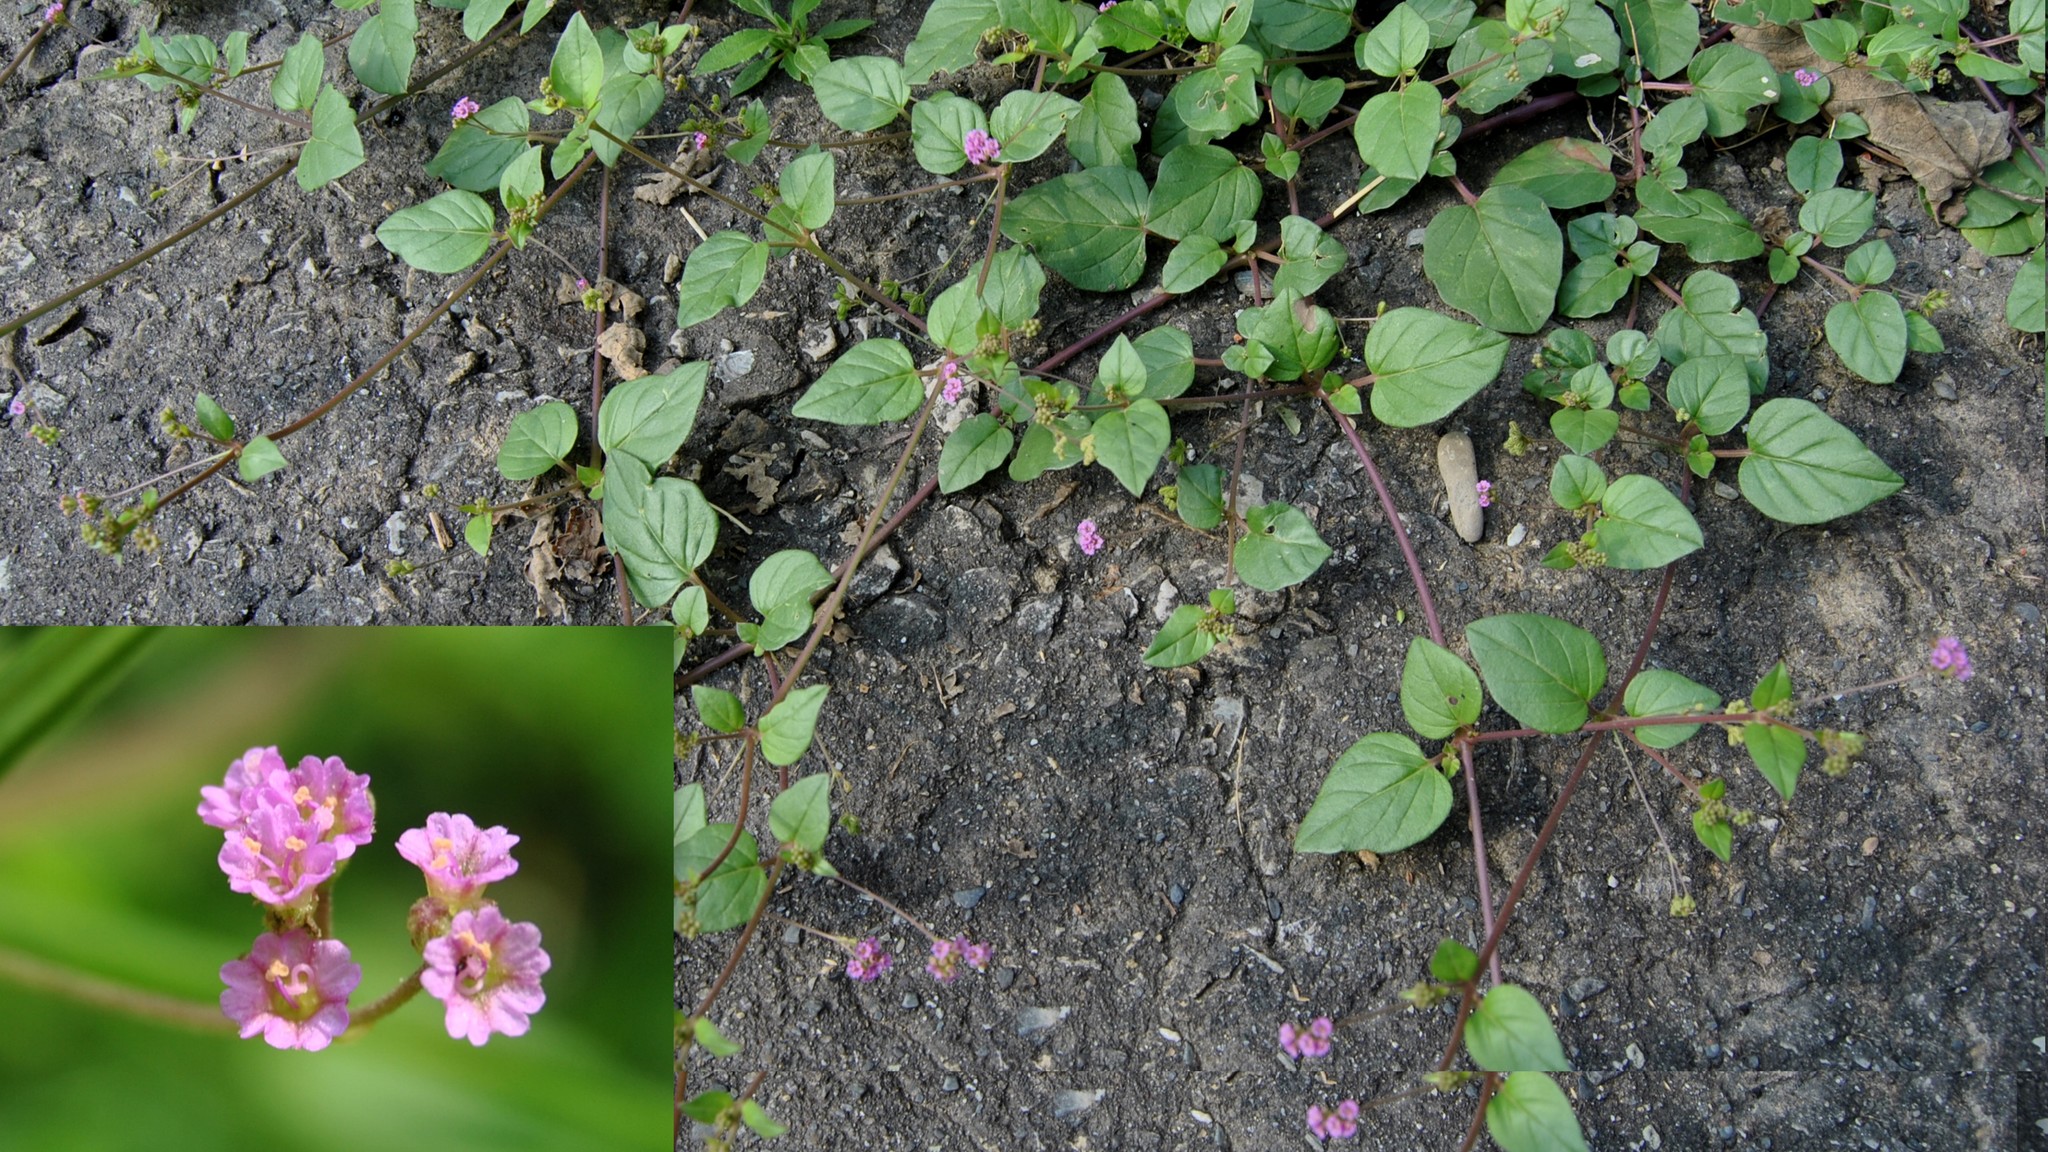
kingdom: Plantae
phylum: Tracheophyta
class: Magnoliopsida
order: Caryophyllales
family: Nyctaginaceae
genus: Boerhavia
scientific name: Boerhavia diffusa
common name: Red spiderling
